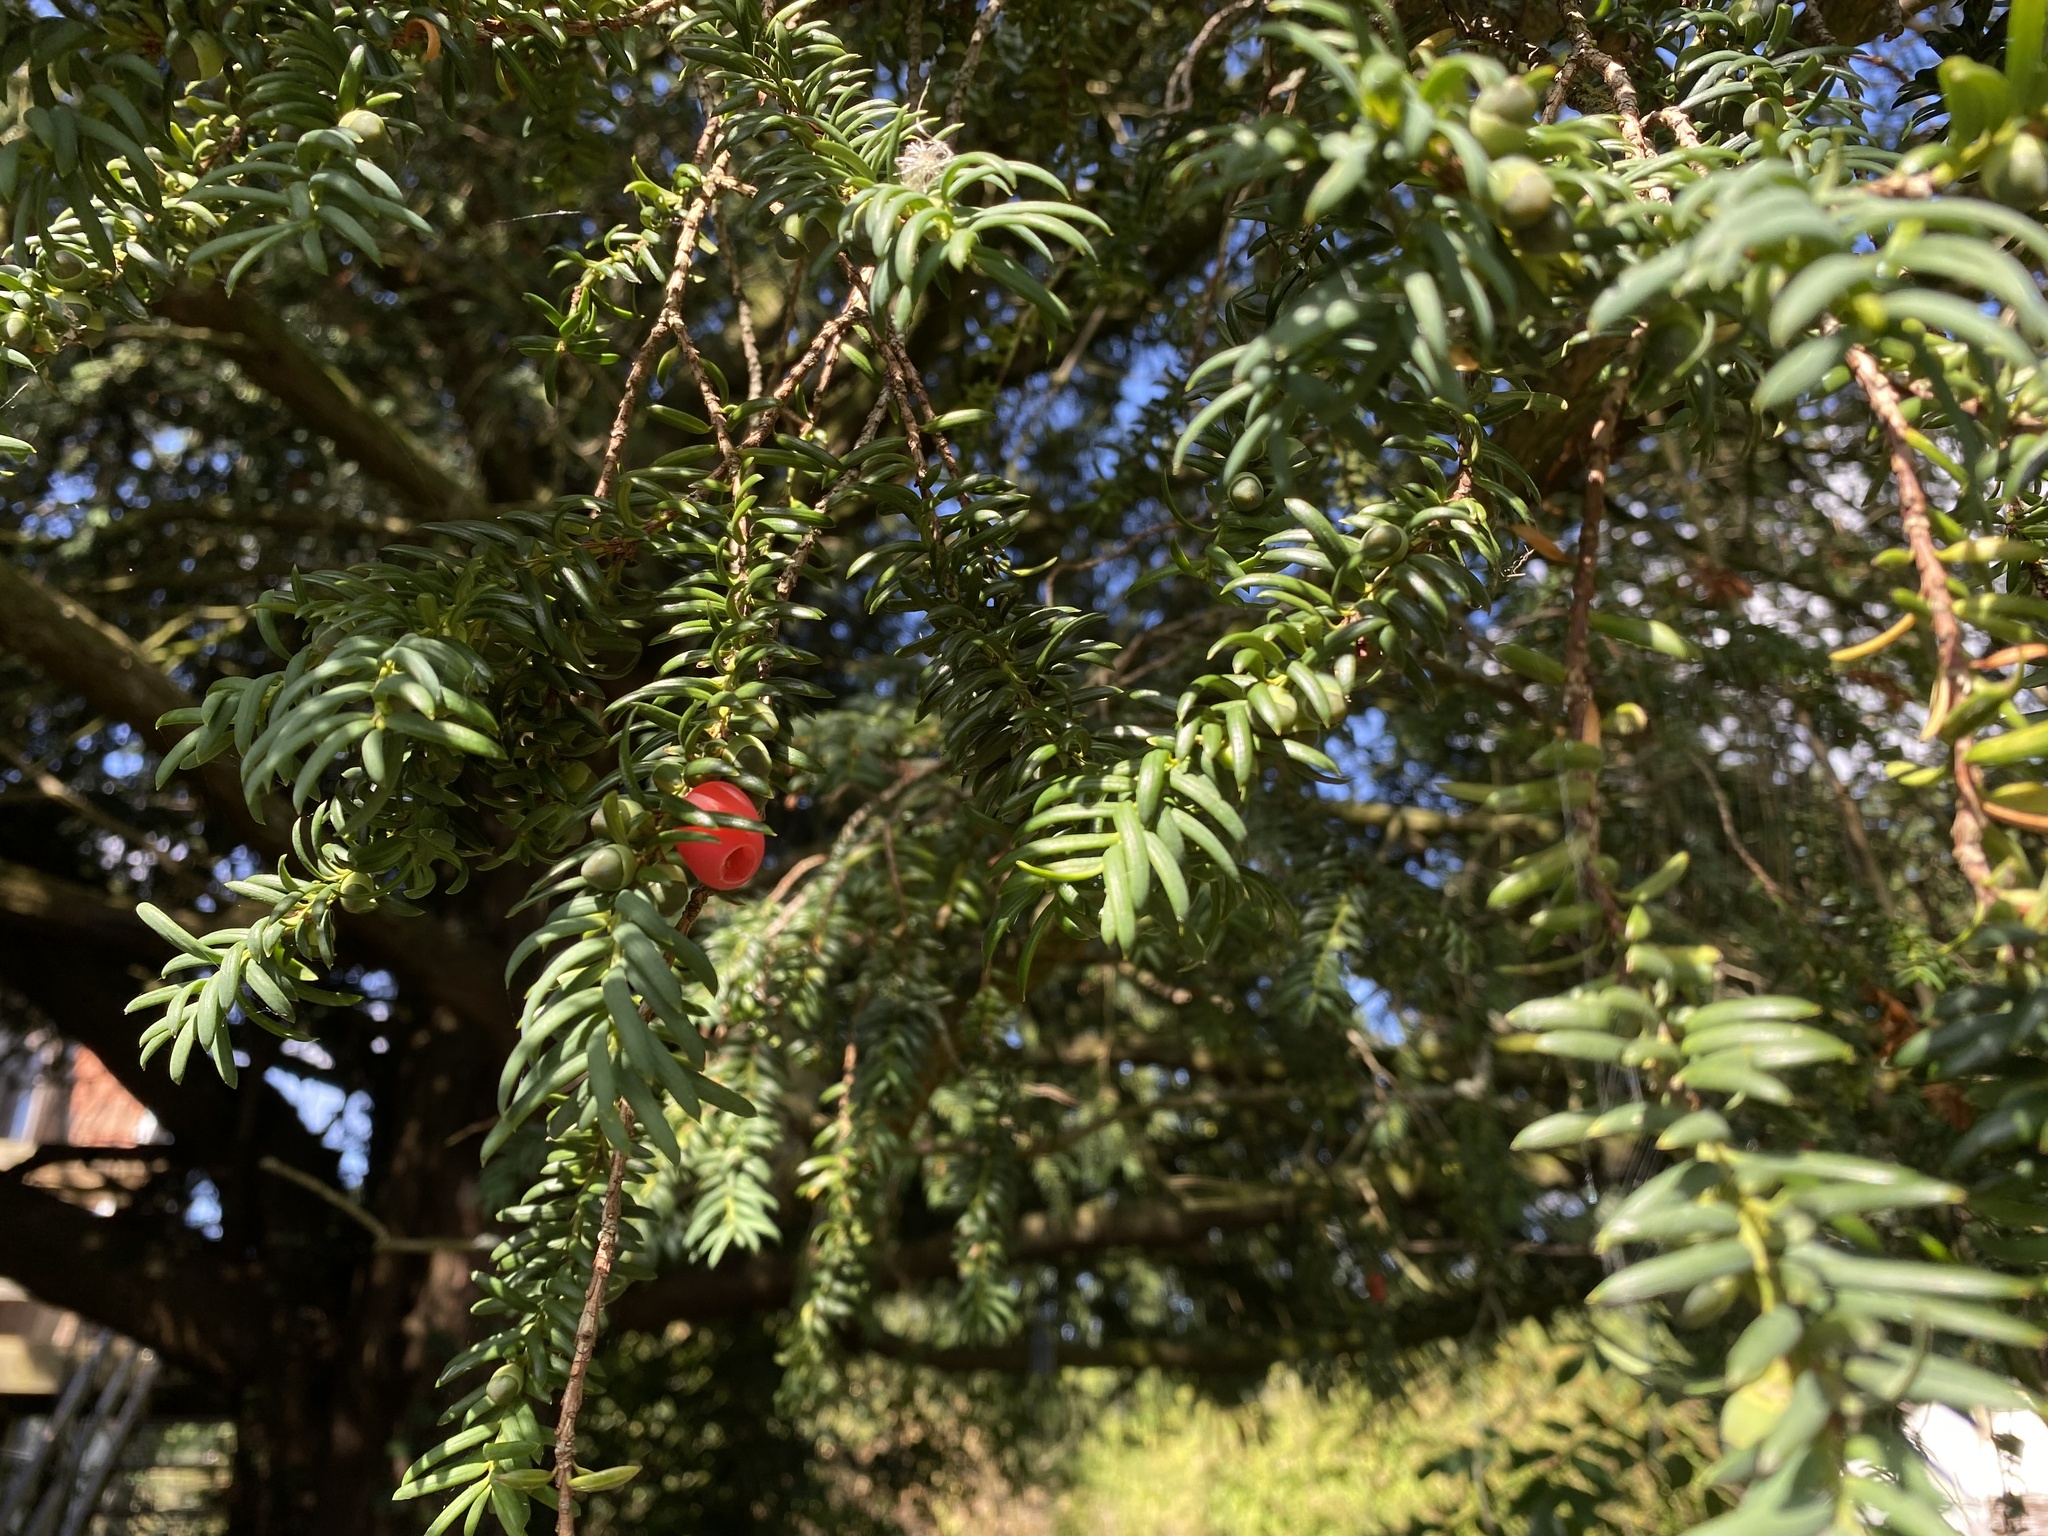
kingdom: Plantae
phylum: Tracheophyta
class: Pinopsida
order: Pinales
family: Taxaceae
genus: Taxus
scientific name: Taxus baccata
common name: Yew
